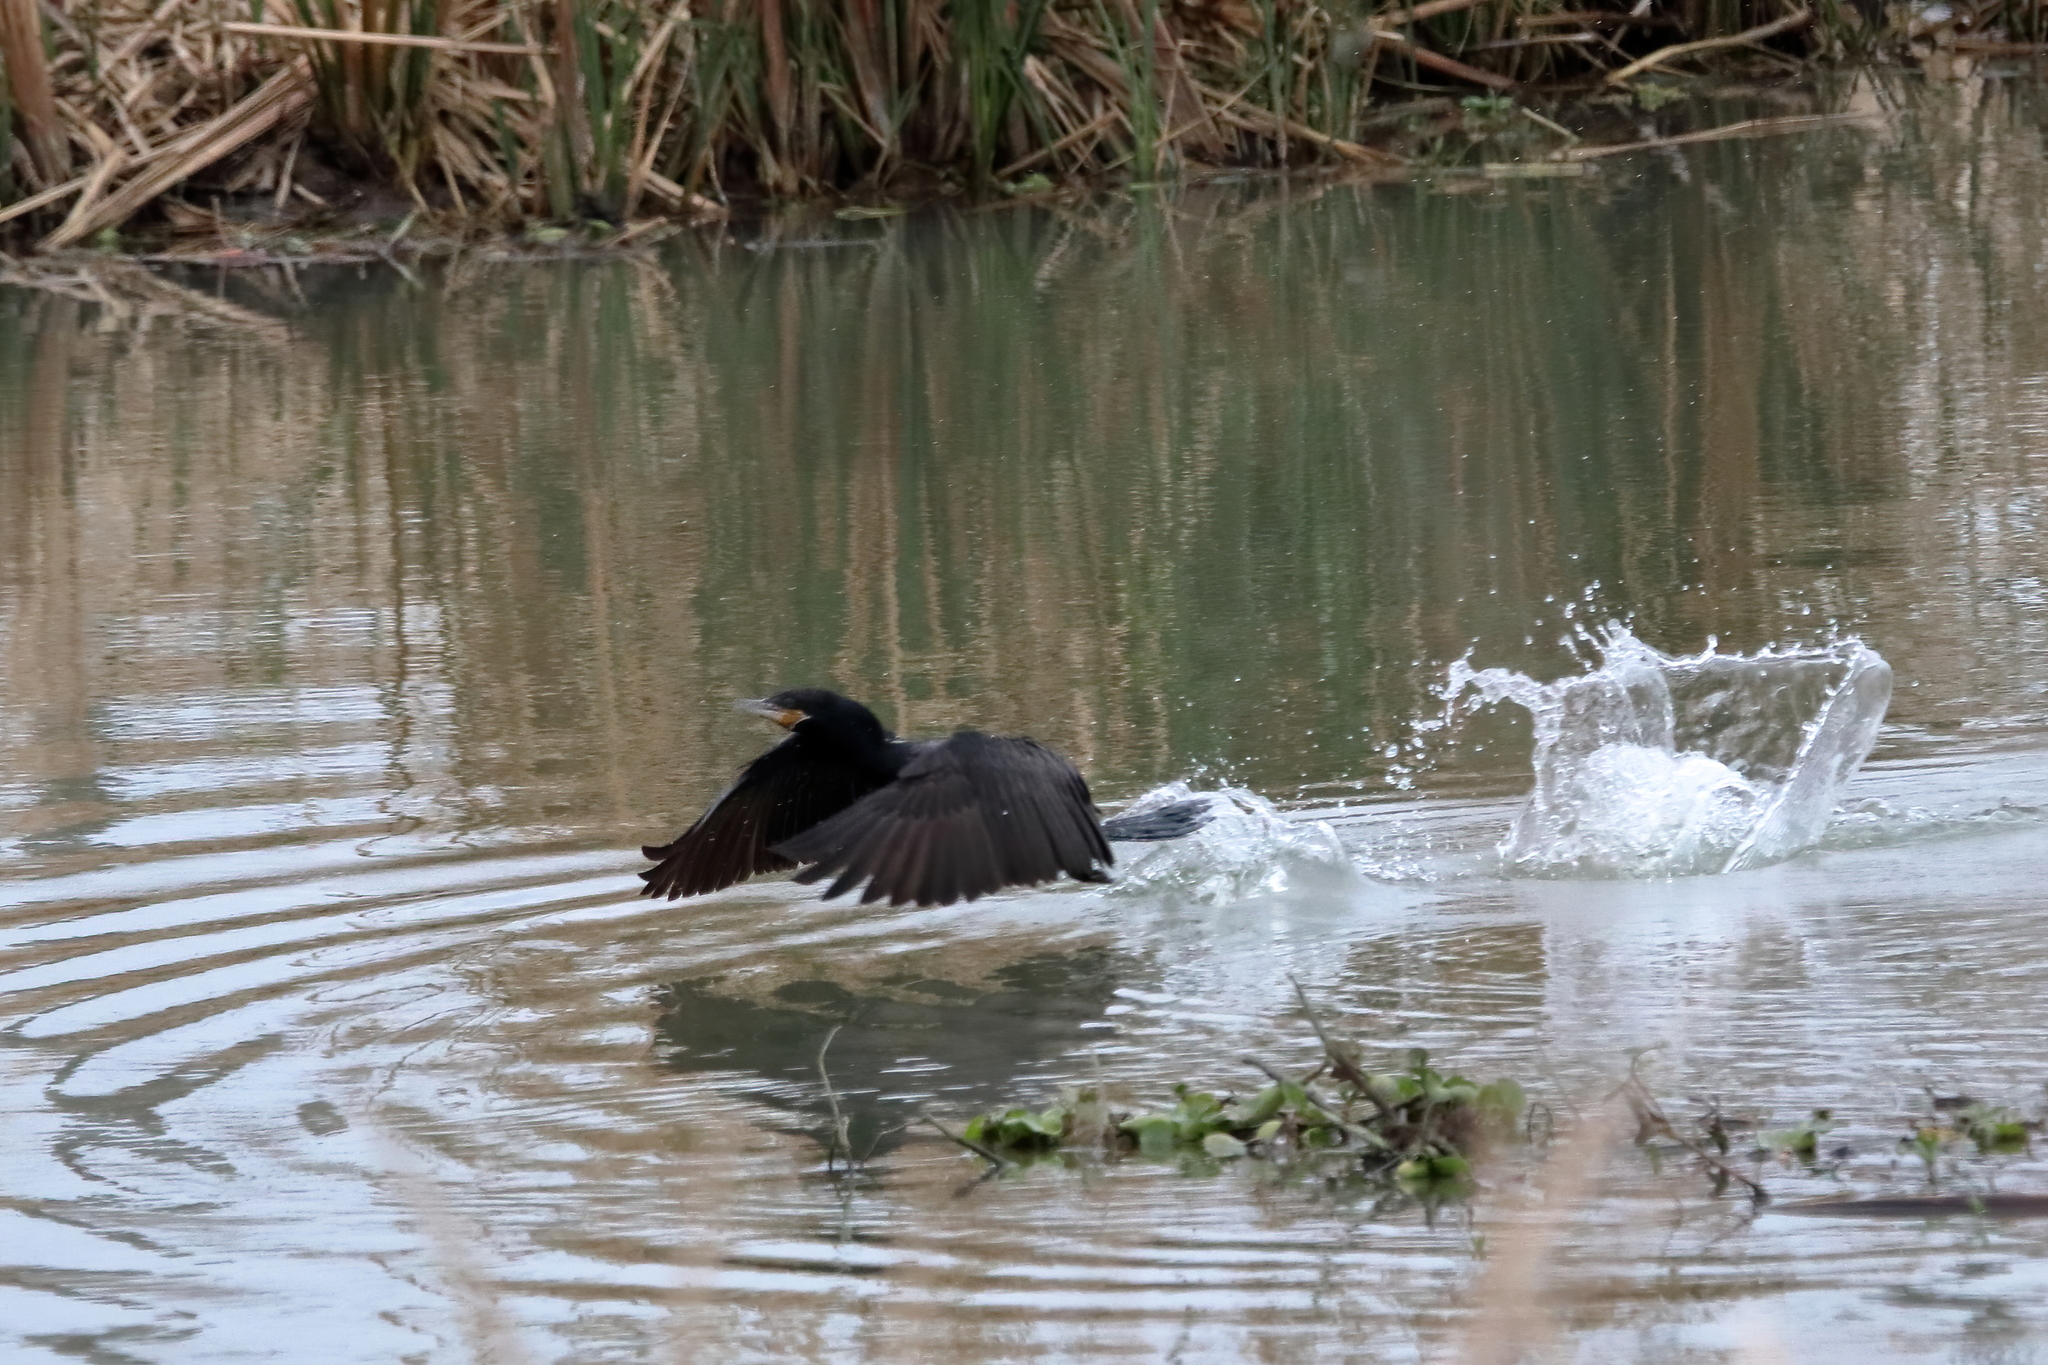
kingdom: Animalia
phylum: Chordata
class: Aves
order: Suliformes
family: Phalacrocoracidae
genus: Phalacrocorax
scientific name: Phalacrocorax brasilianus
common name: Neotropic cormorant
